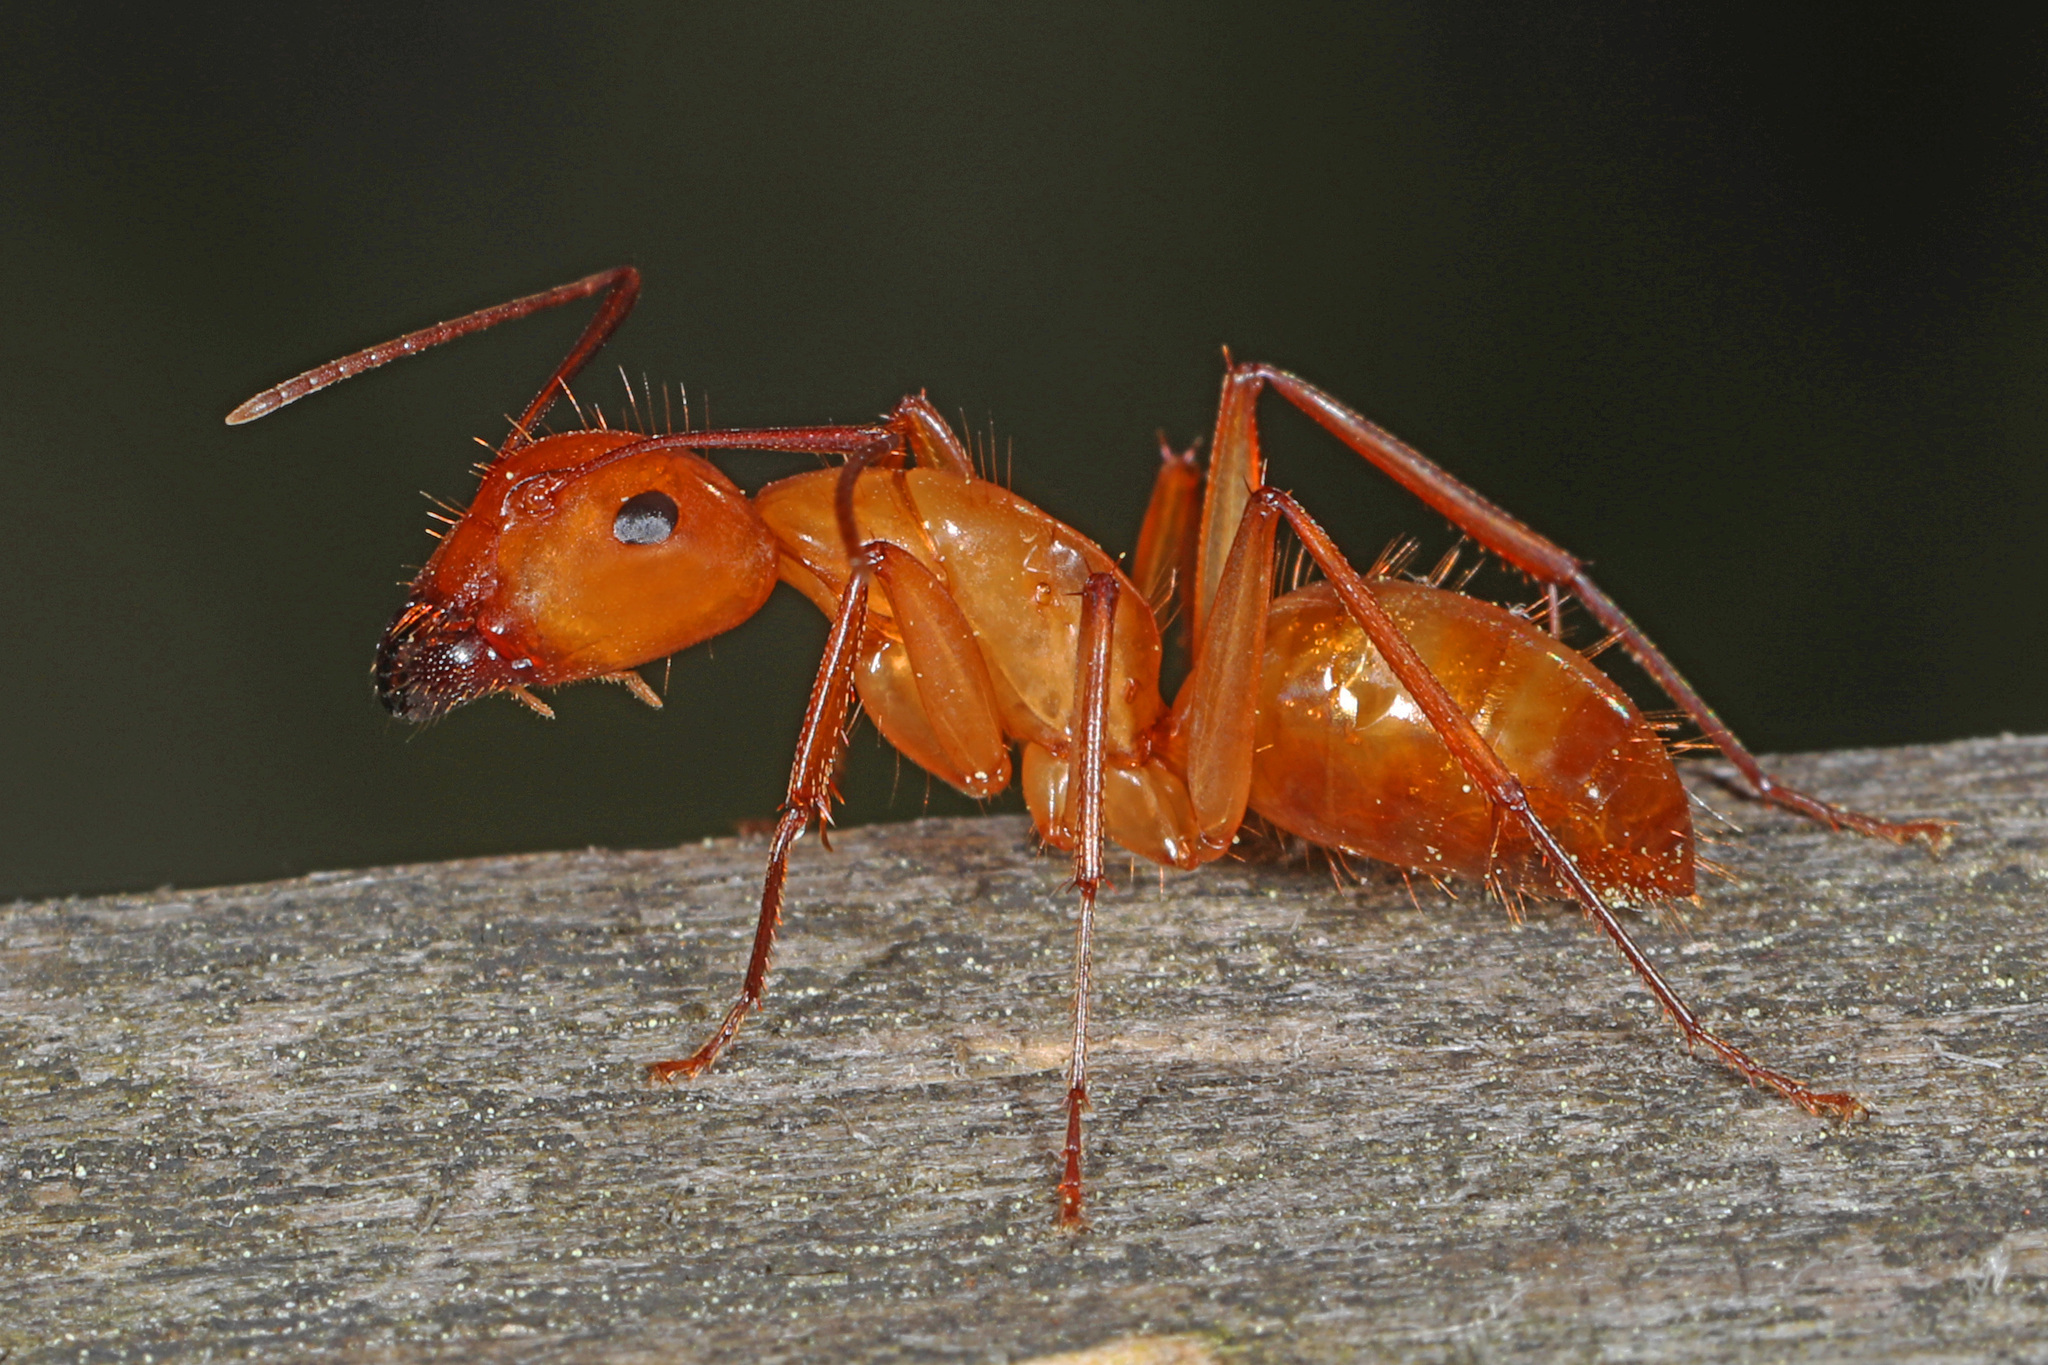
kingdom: Animalia
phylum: Arthropoda
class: Insecta
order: Hymenoptera
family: Formicidae
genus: Camponotus
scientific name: Camponotus castaneus
